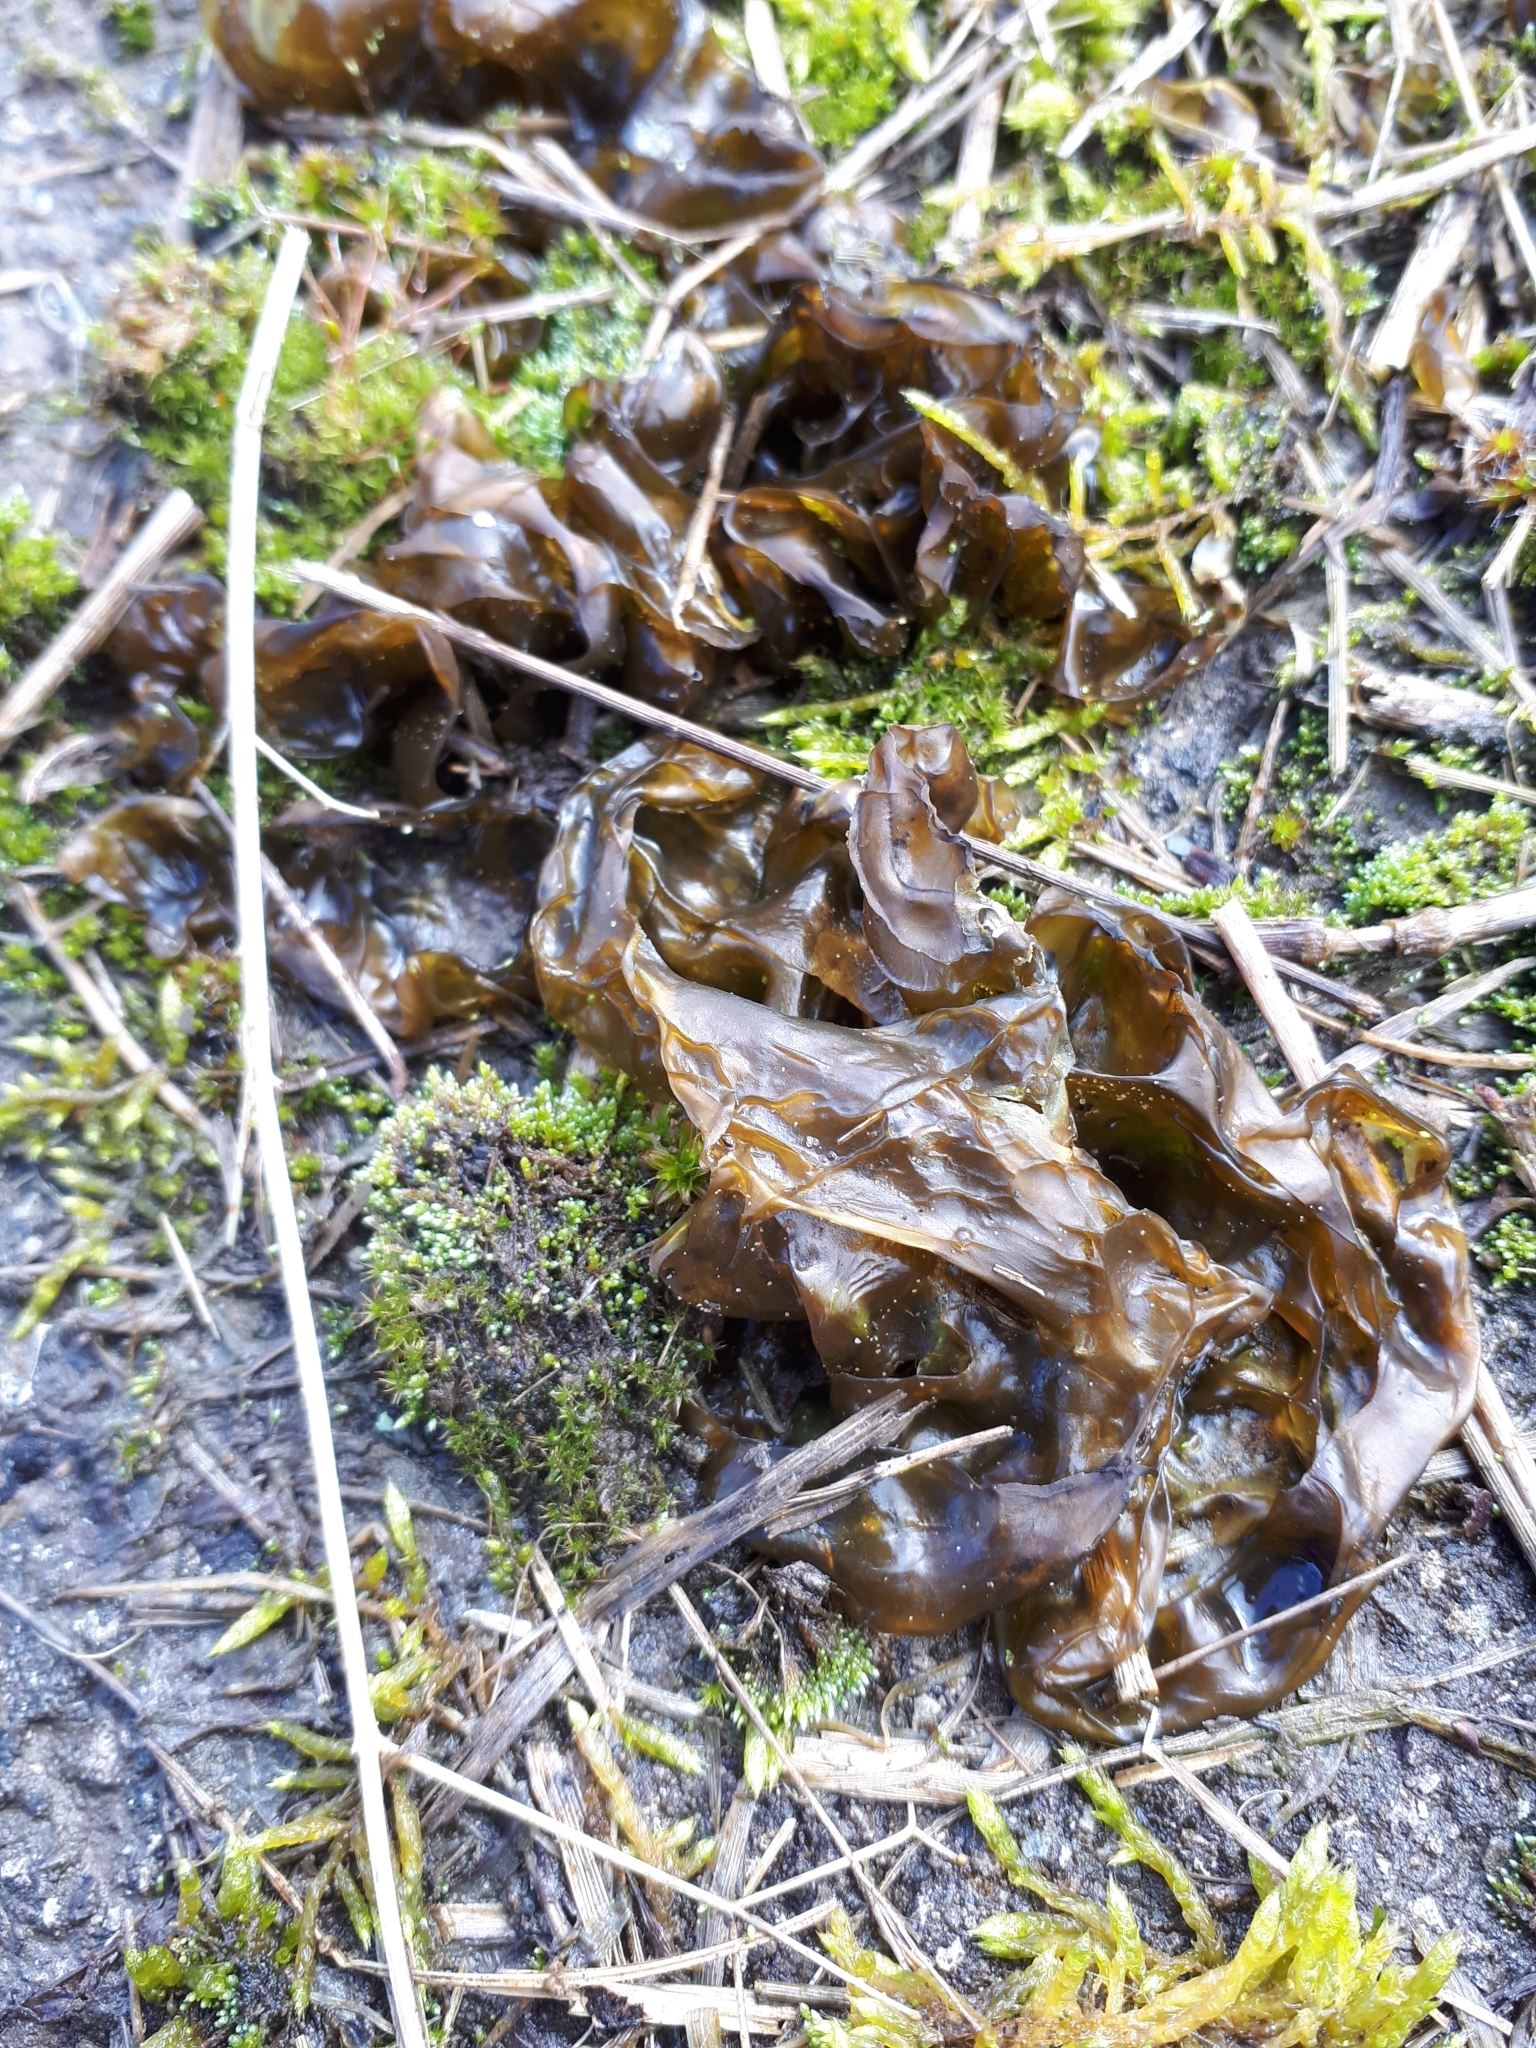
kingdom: Bacteria
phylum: Cyanobacteria
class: Cyanobacteriia
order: Cyanobacteriales
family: Nostocaceae
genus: Nostoc
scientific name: Nostoc commune
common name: Star jelly
